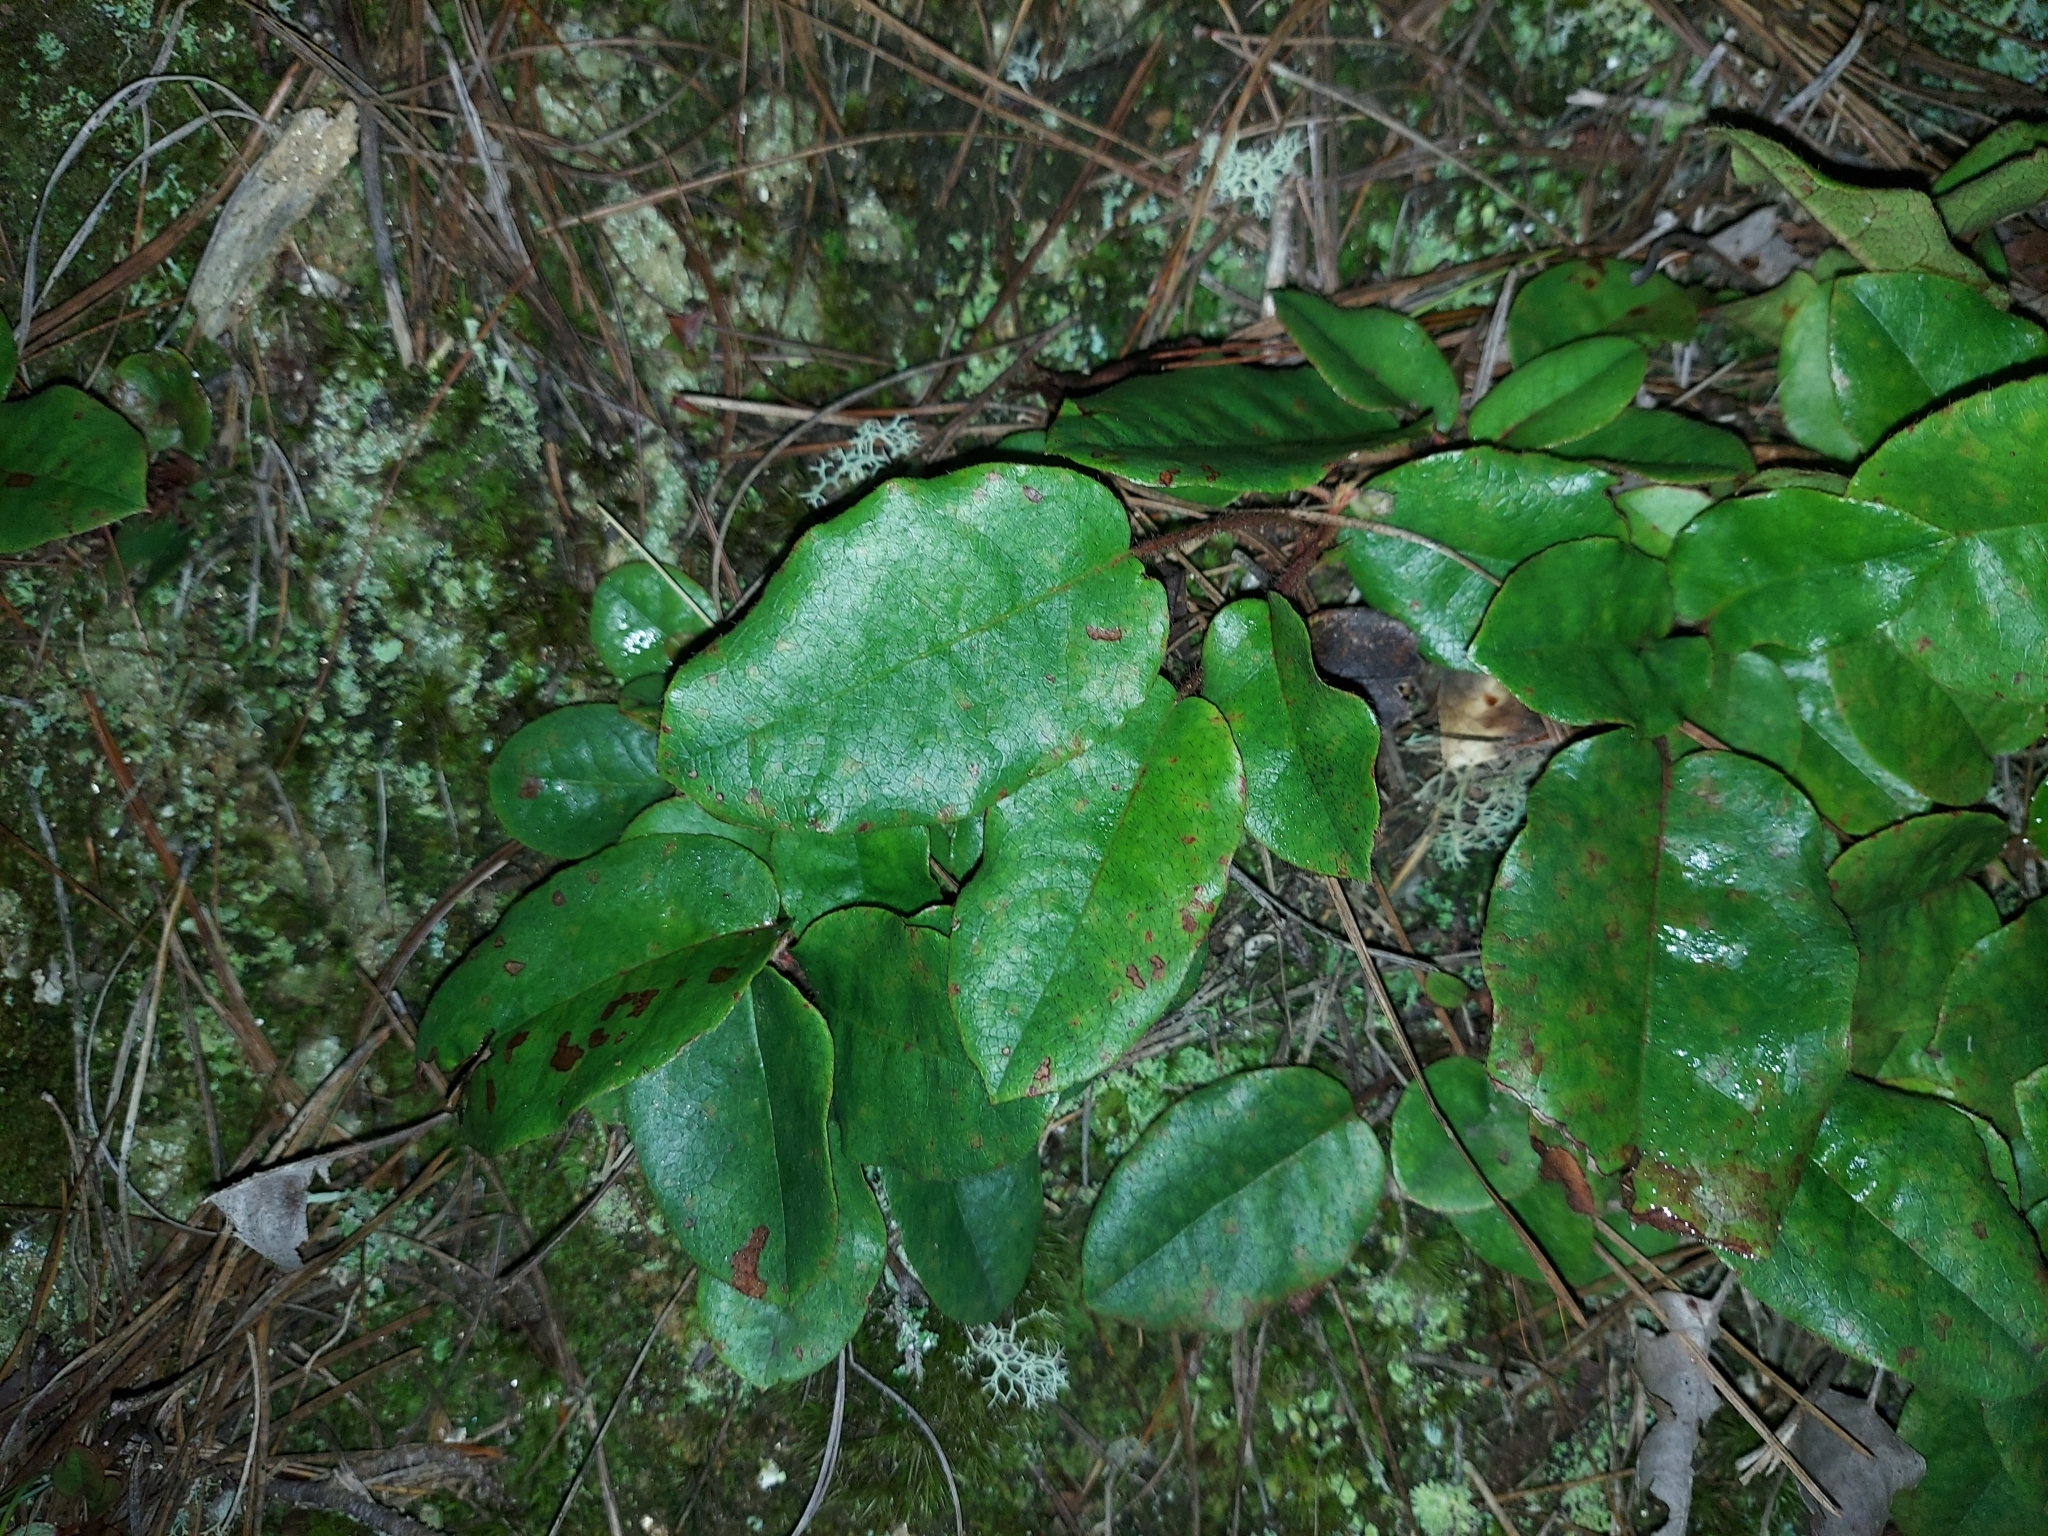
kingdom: Plantae
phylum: Tracheophyta
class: Magnoliopsida
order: Ericales
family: Ericaceae
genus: Epigaea
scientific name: Epigaea repens
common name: Gravelroot
